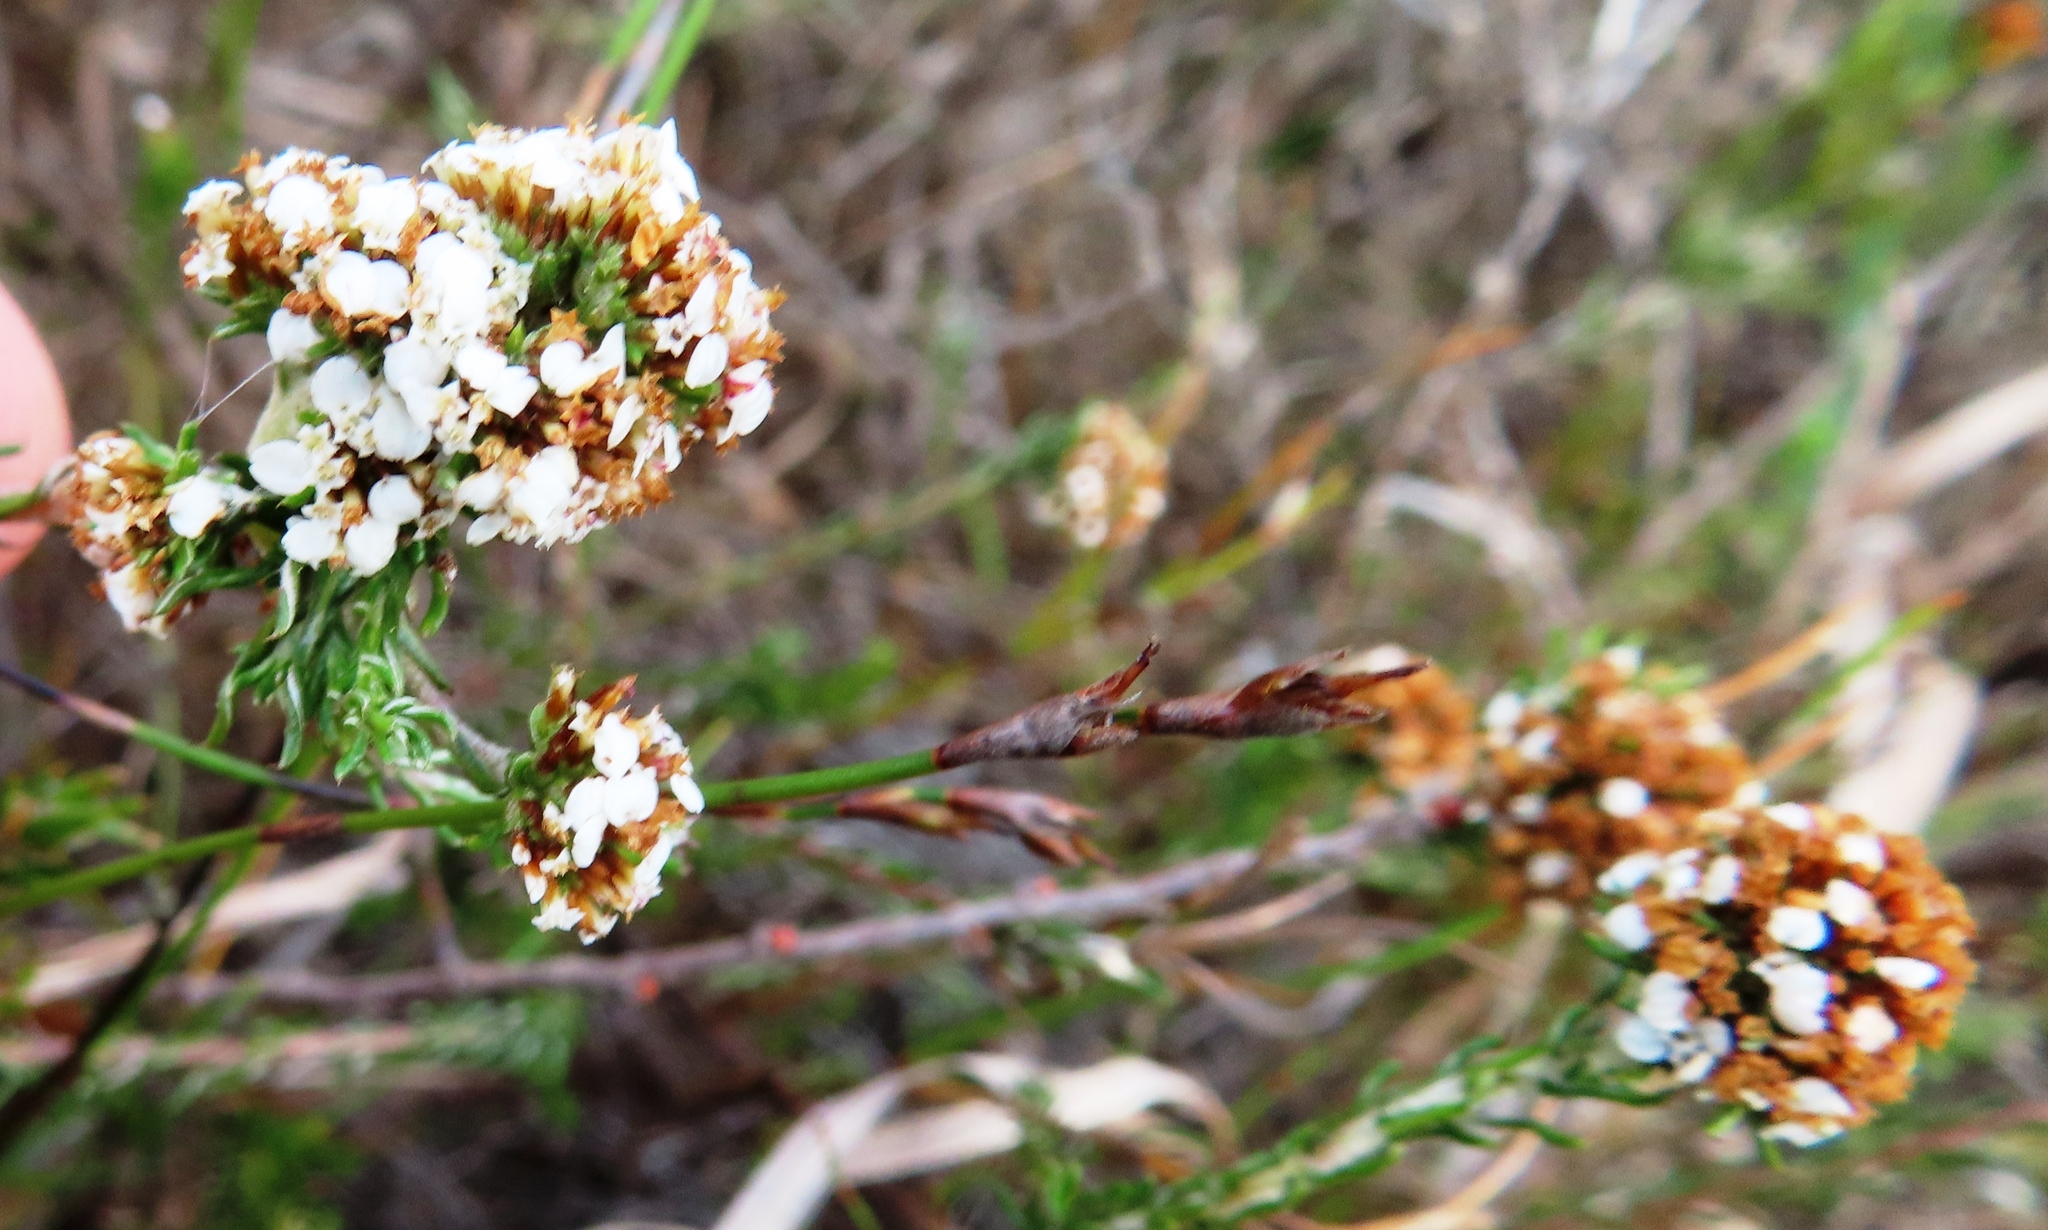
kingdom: Plantae
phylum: Tracheophyta
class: Magnoliopsida
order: Asterales
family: Asteraceae
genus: Disparago
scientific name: Disparago anomala
